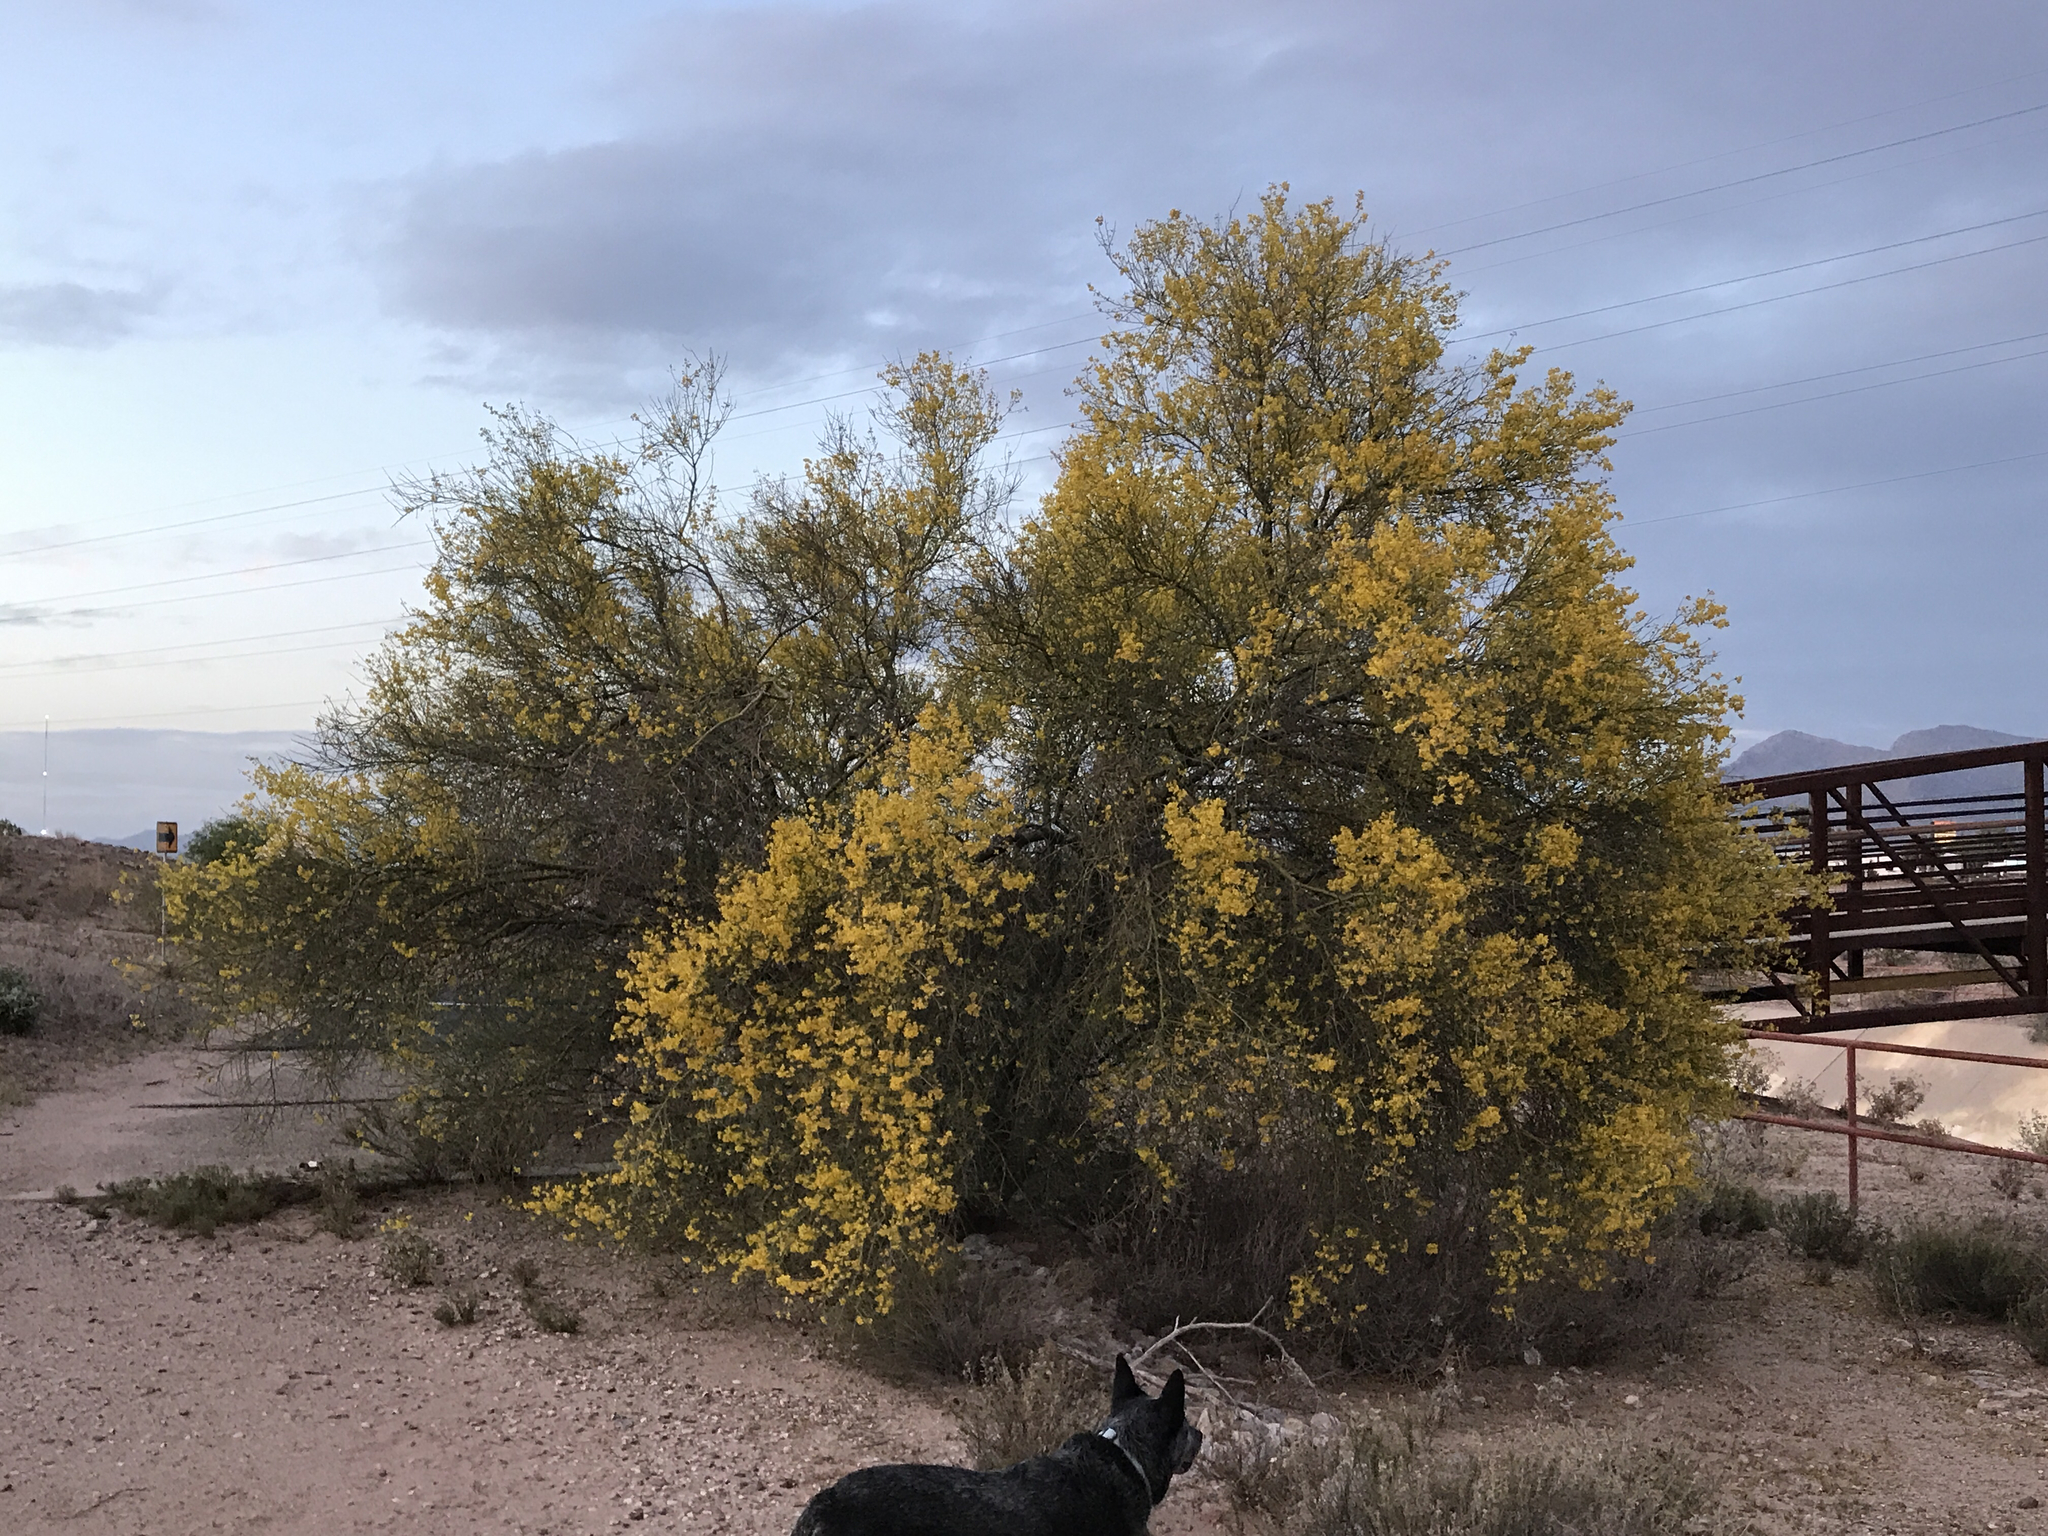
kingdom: Plantae
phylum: Tracheophyta
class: Magnoliopsida
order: Fabales
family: Fabaceae
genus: Parkinsonia
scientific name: Parkinsonia florida
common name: Blue paloverde
